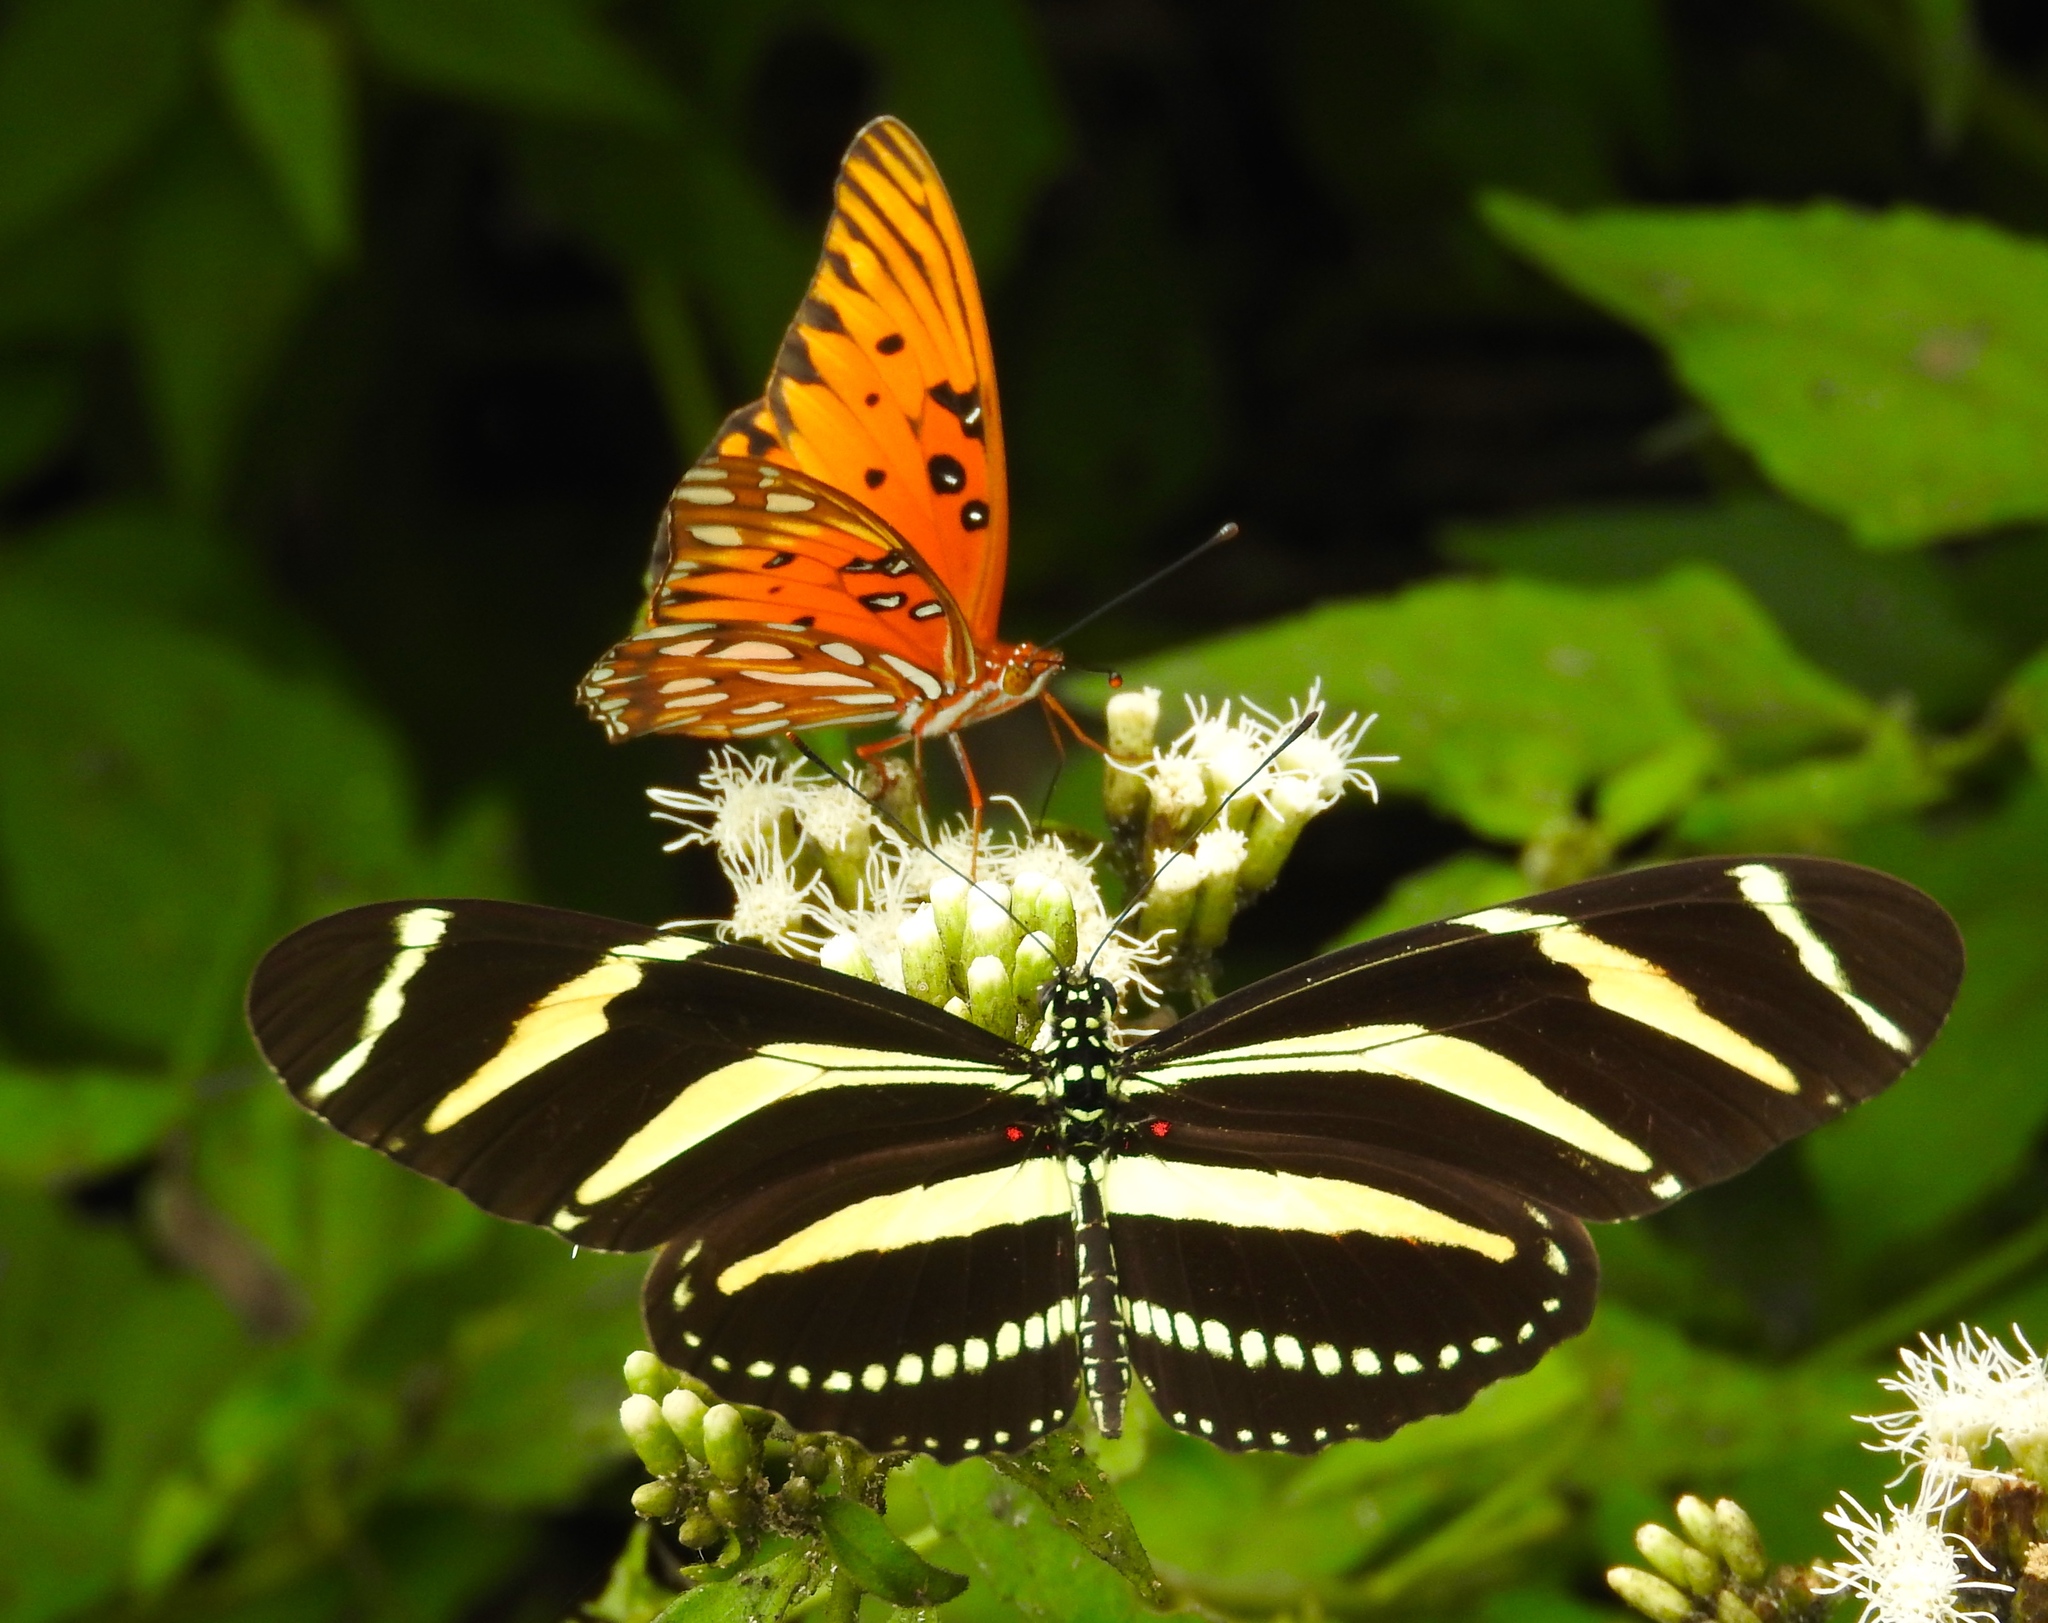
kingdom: Animalia
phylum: Arthropoda
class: Insecta
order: Lepidoptera
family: Nymphalidae
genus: Dione
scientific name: Dione vanillae
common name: Gulf fritillary
